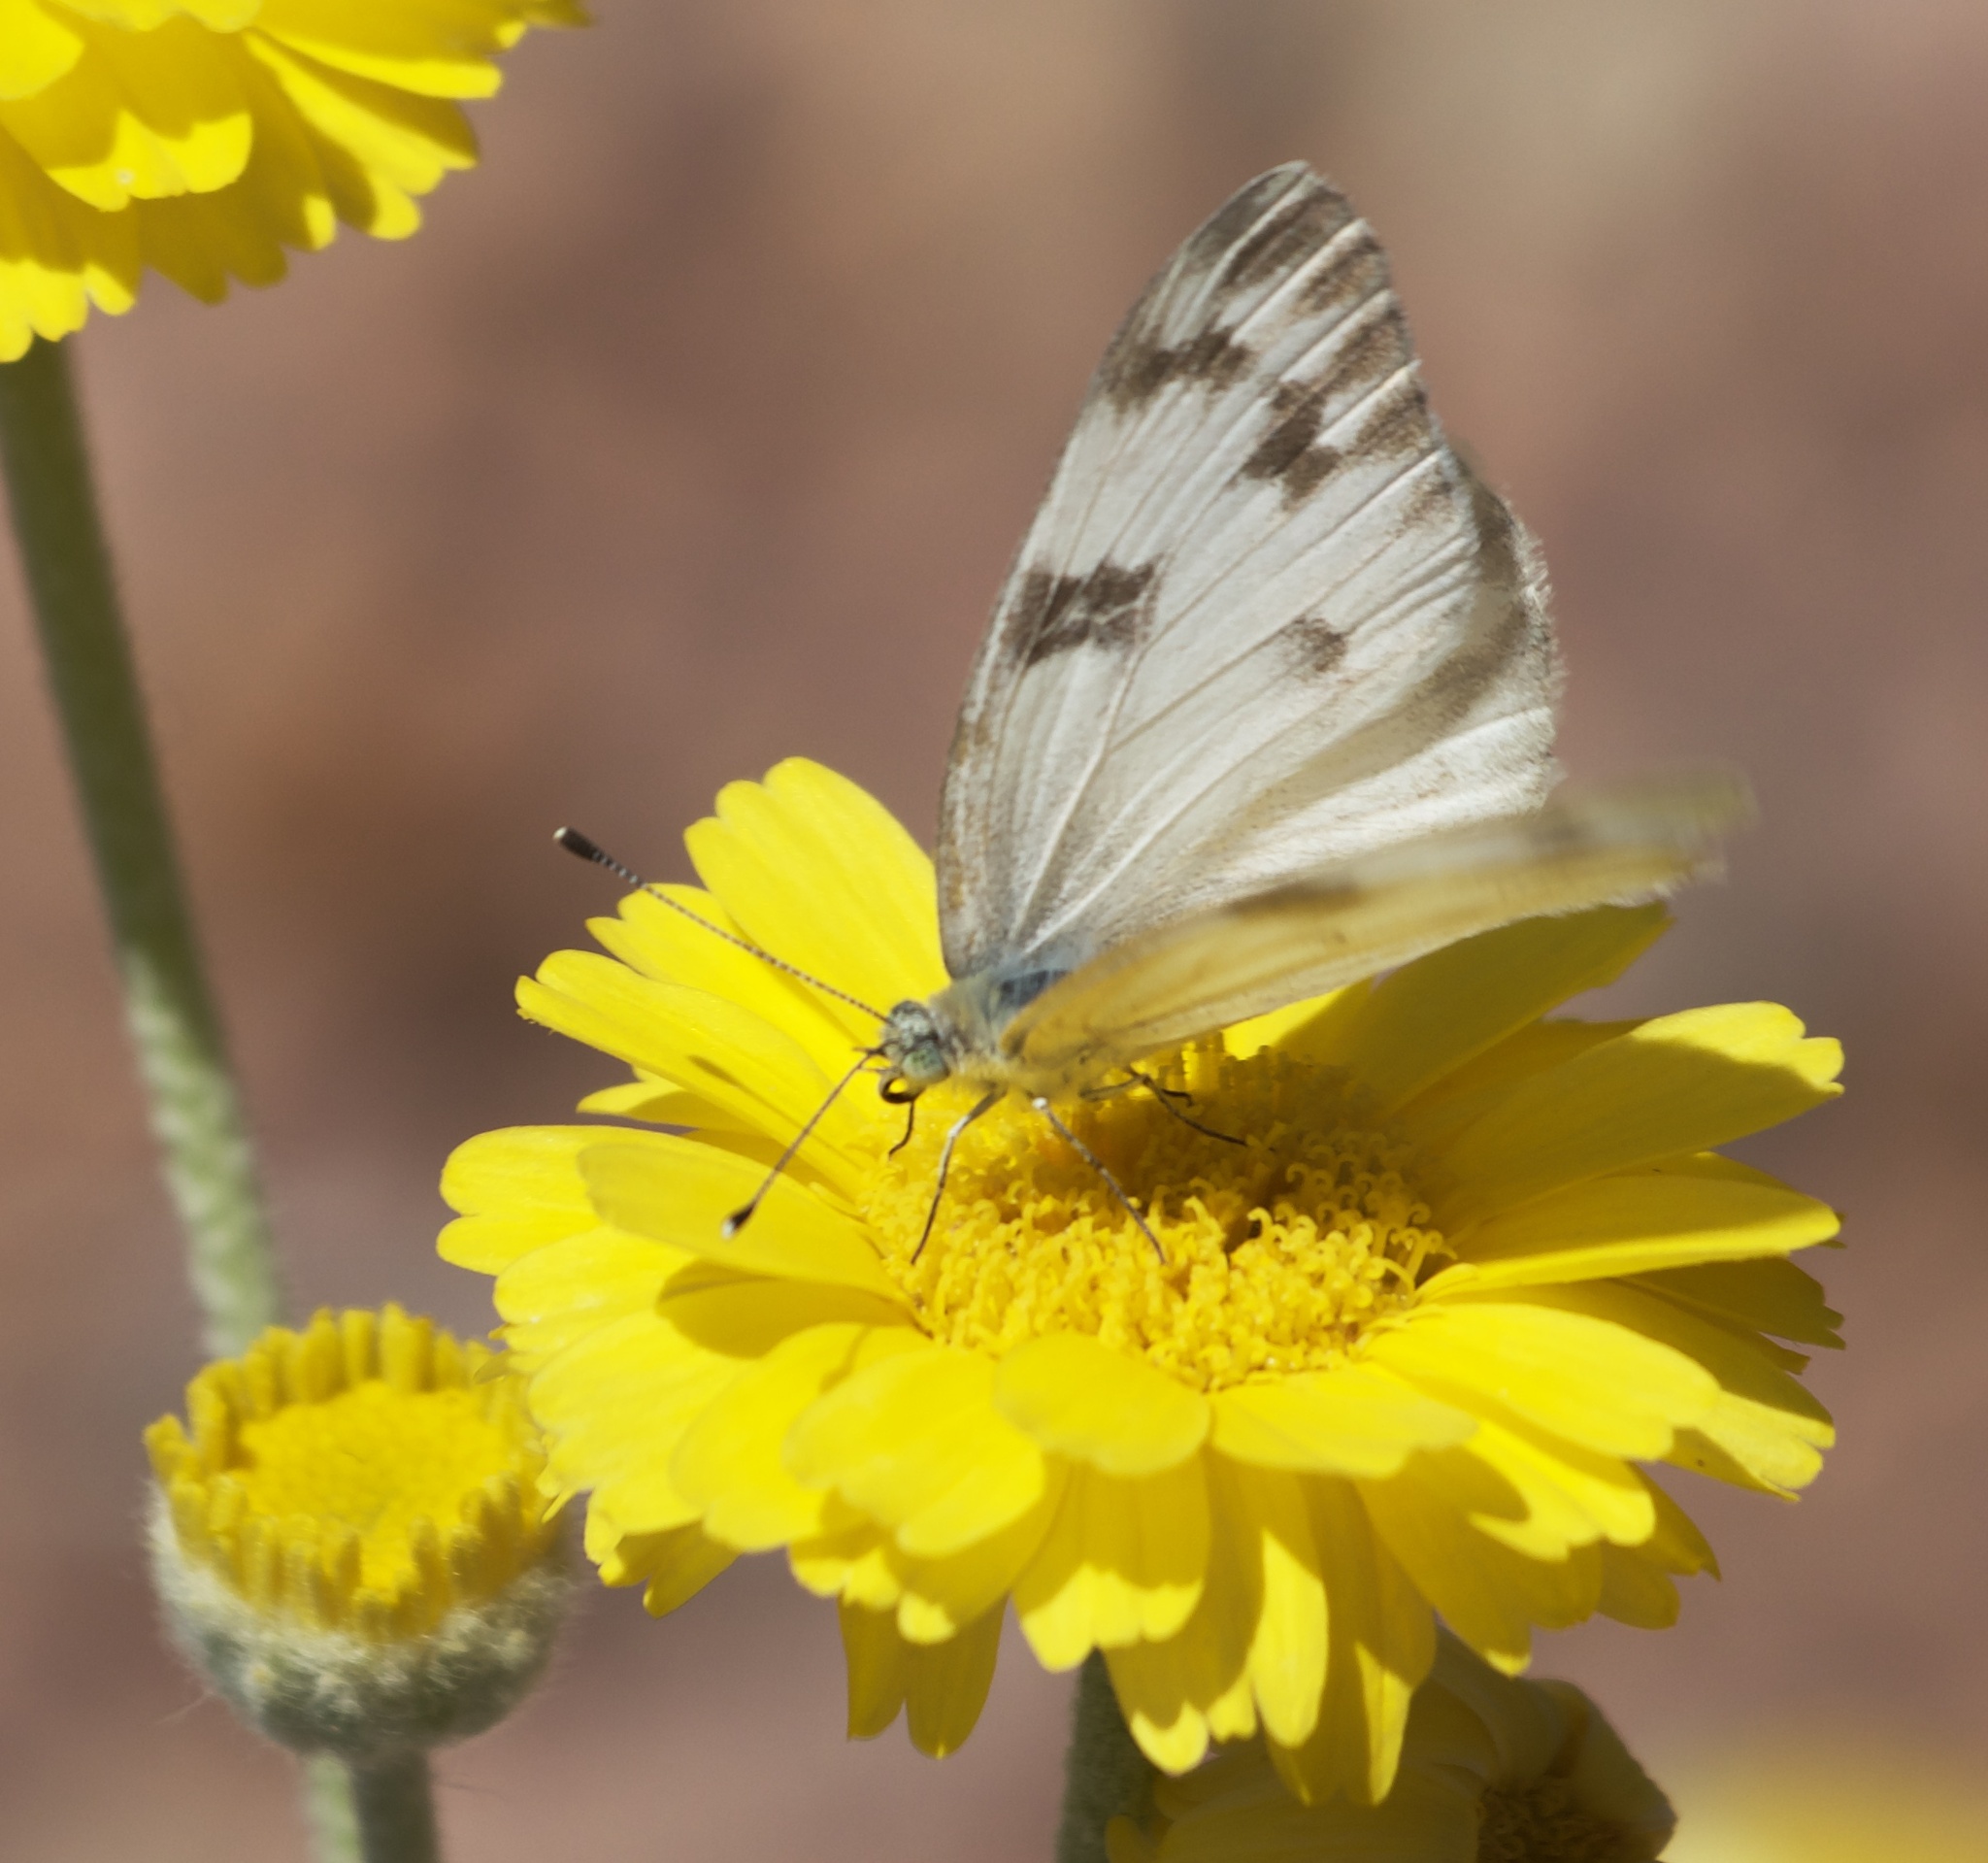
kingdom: Animalia
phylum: Arthropoda
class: Insecta
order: Lepidoptera
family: Pieridae
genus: Pontia
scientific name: Pontia protodice
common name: Checkered white
